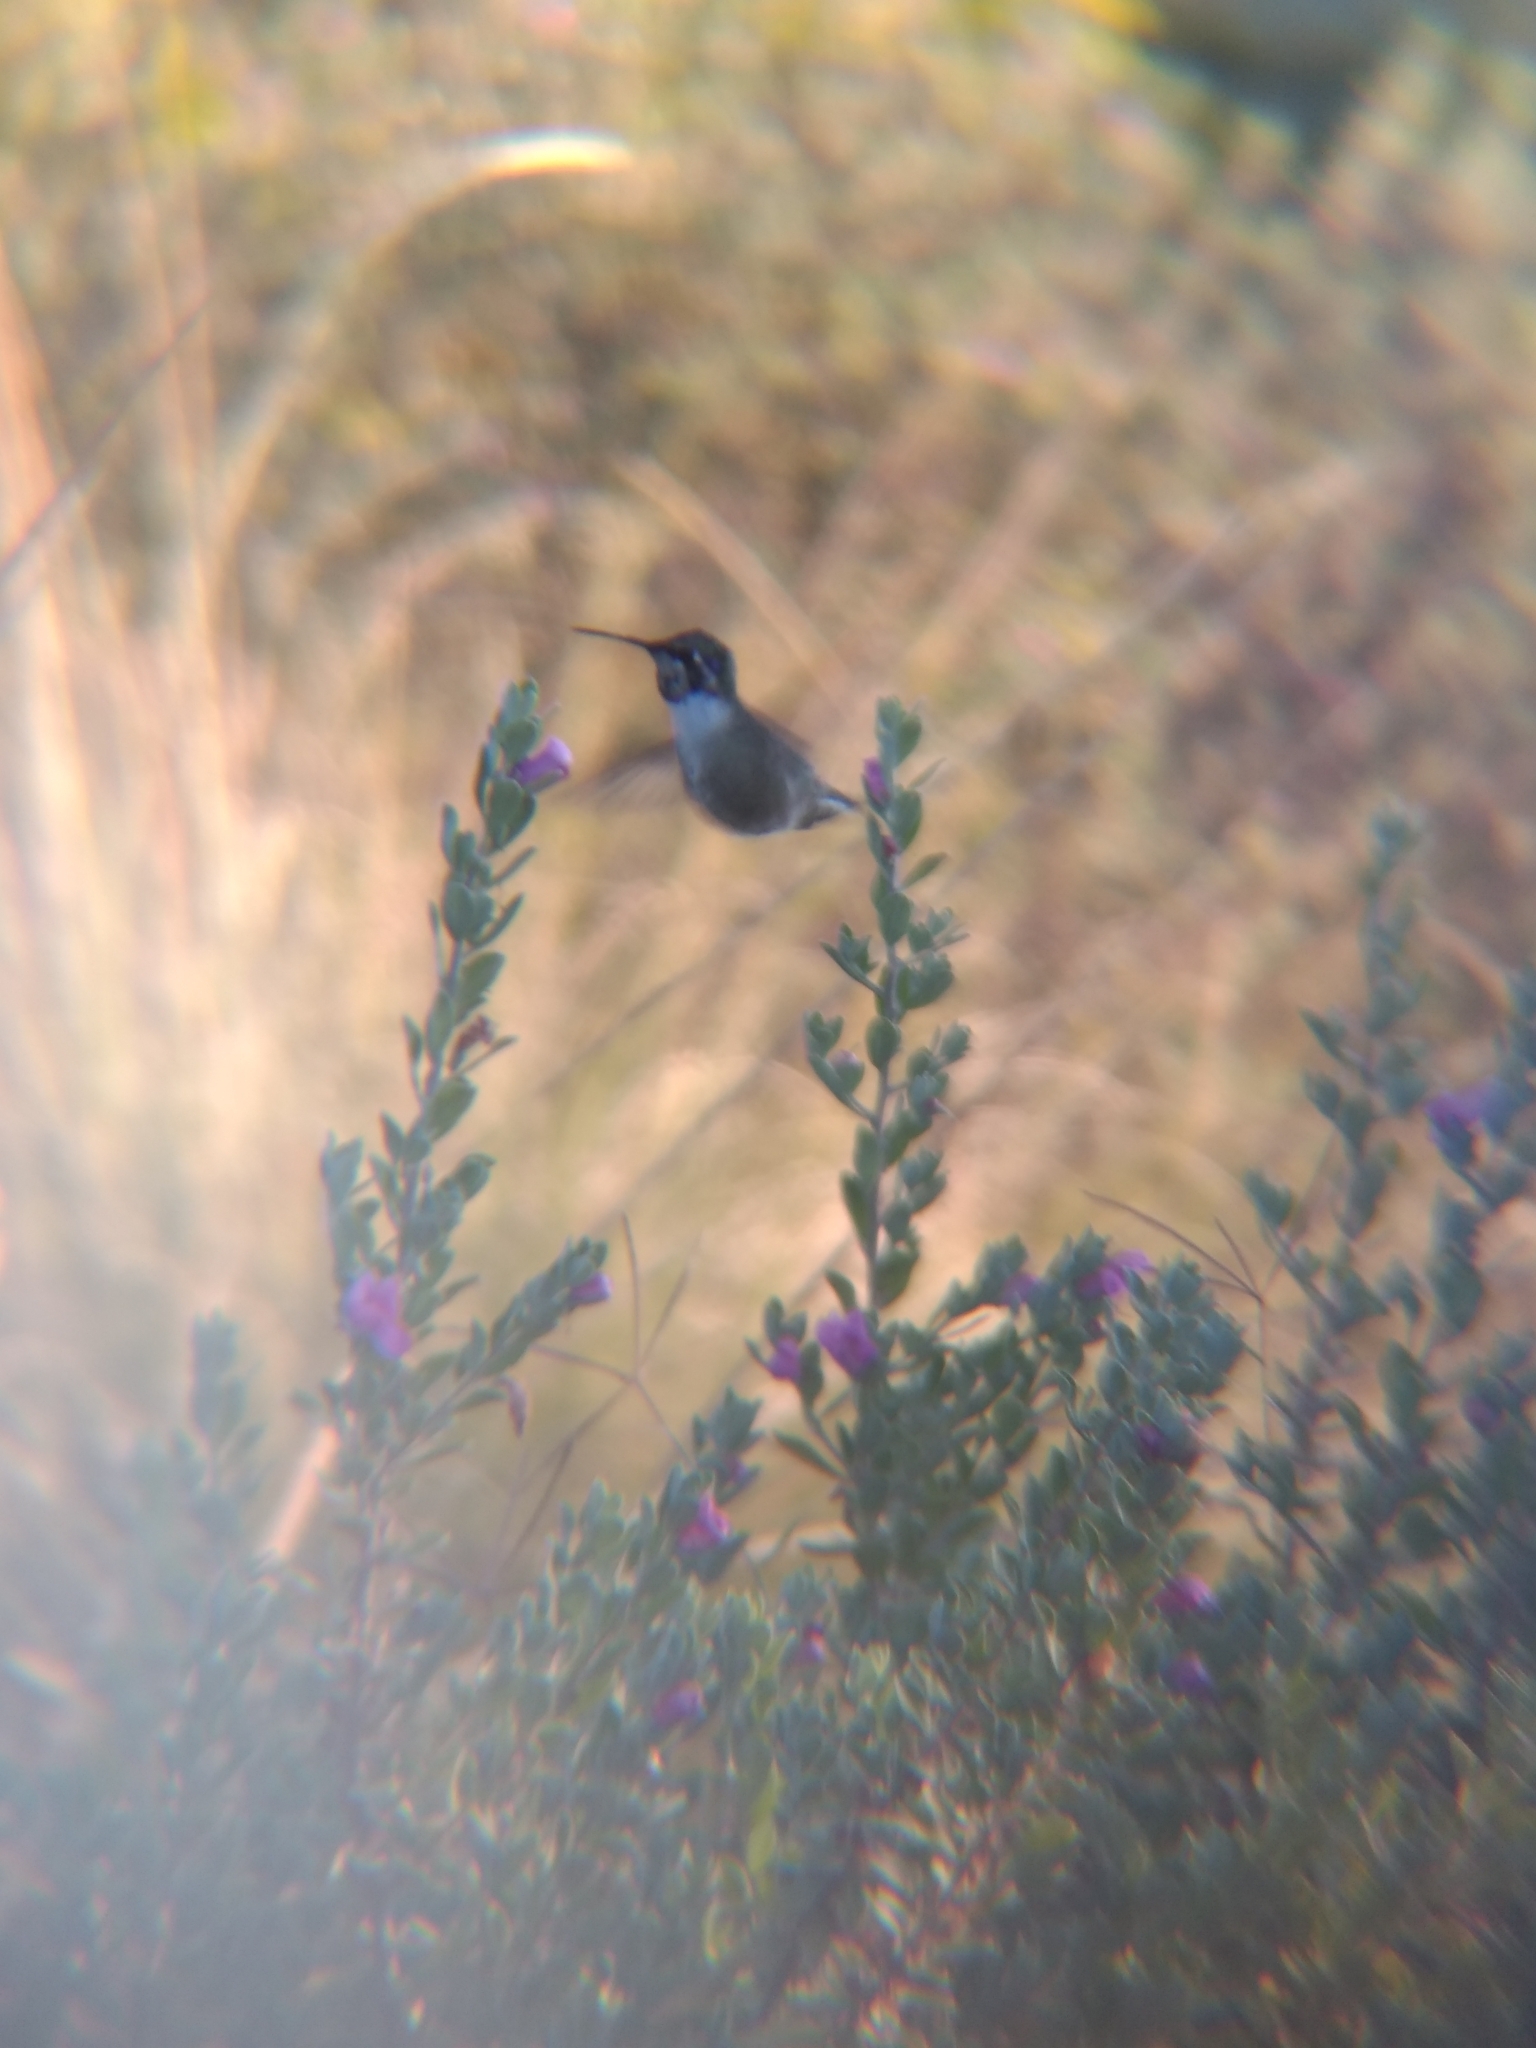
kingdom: Animalia
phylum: Chordata
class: Aves
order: Apodiformes
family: Trochilidae
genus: Calypte
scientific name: Calypte costae
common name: Costa's hummingbird
